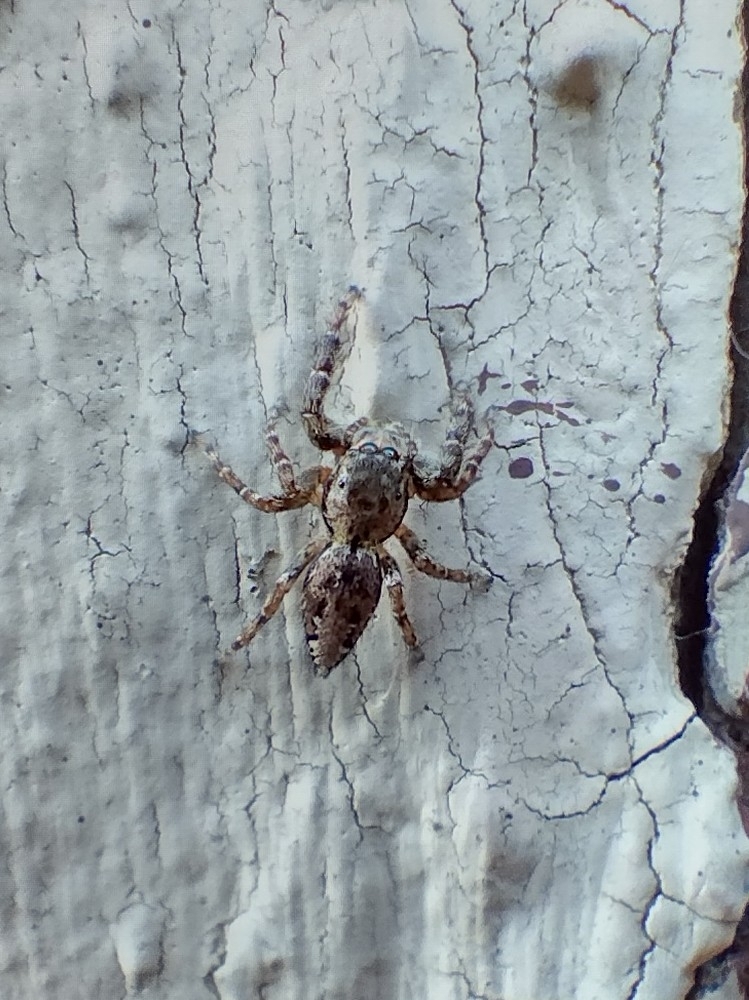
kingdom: Animalia
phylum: Arthropoda
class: Arachnida
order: Araneae
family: Salticidae
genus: Marpissa
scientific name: Marpissa muscosa
